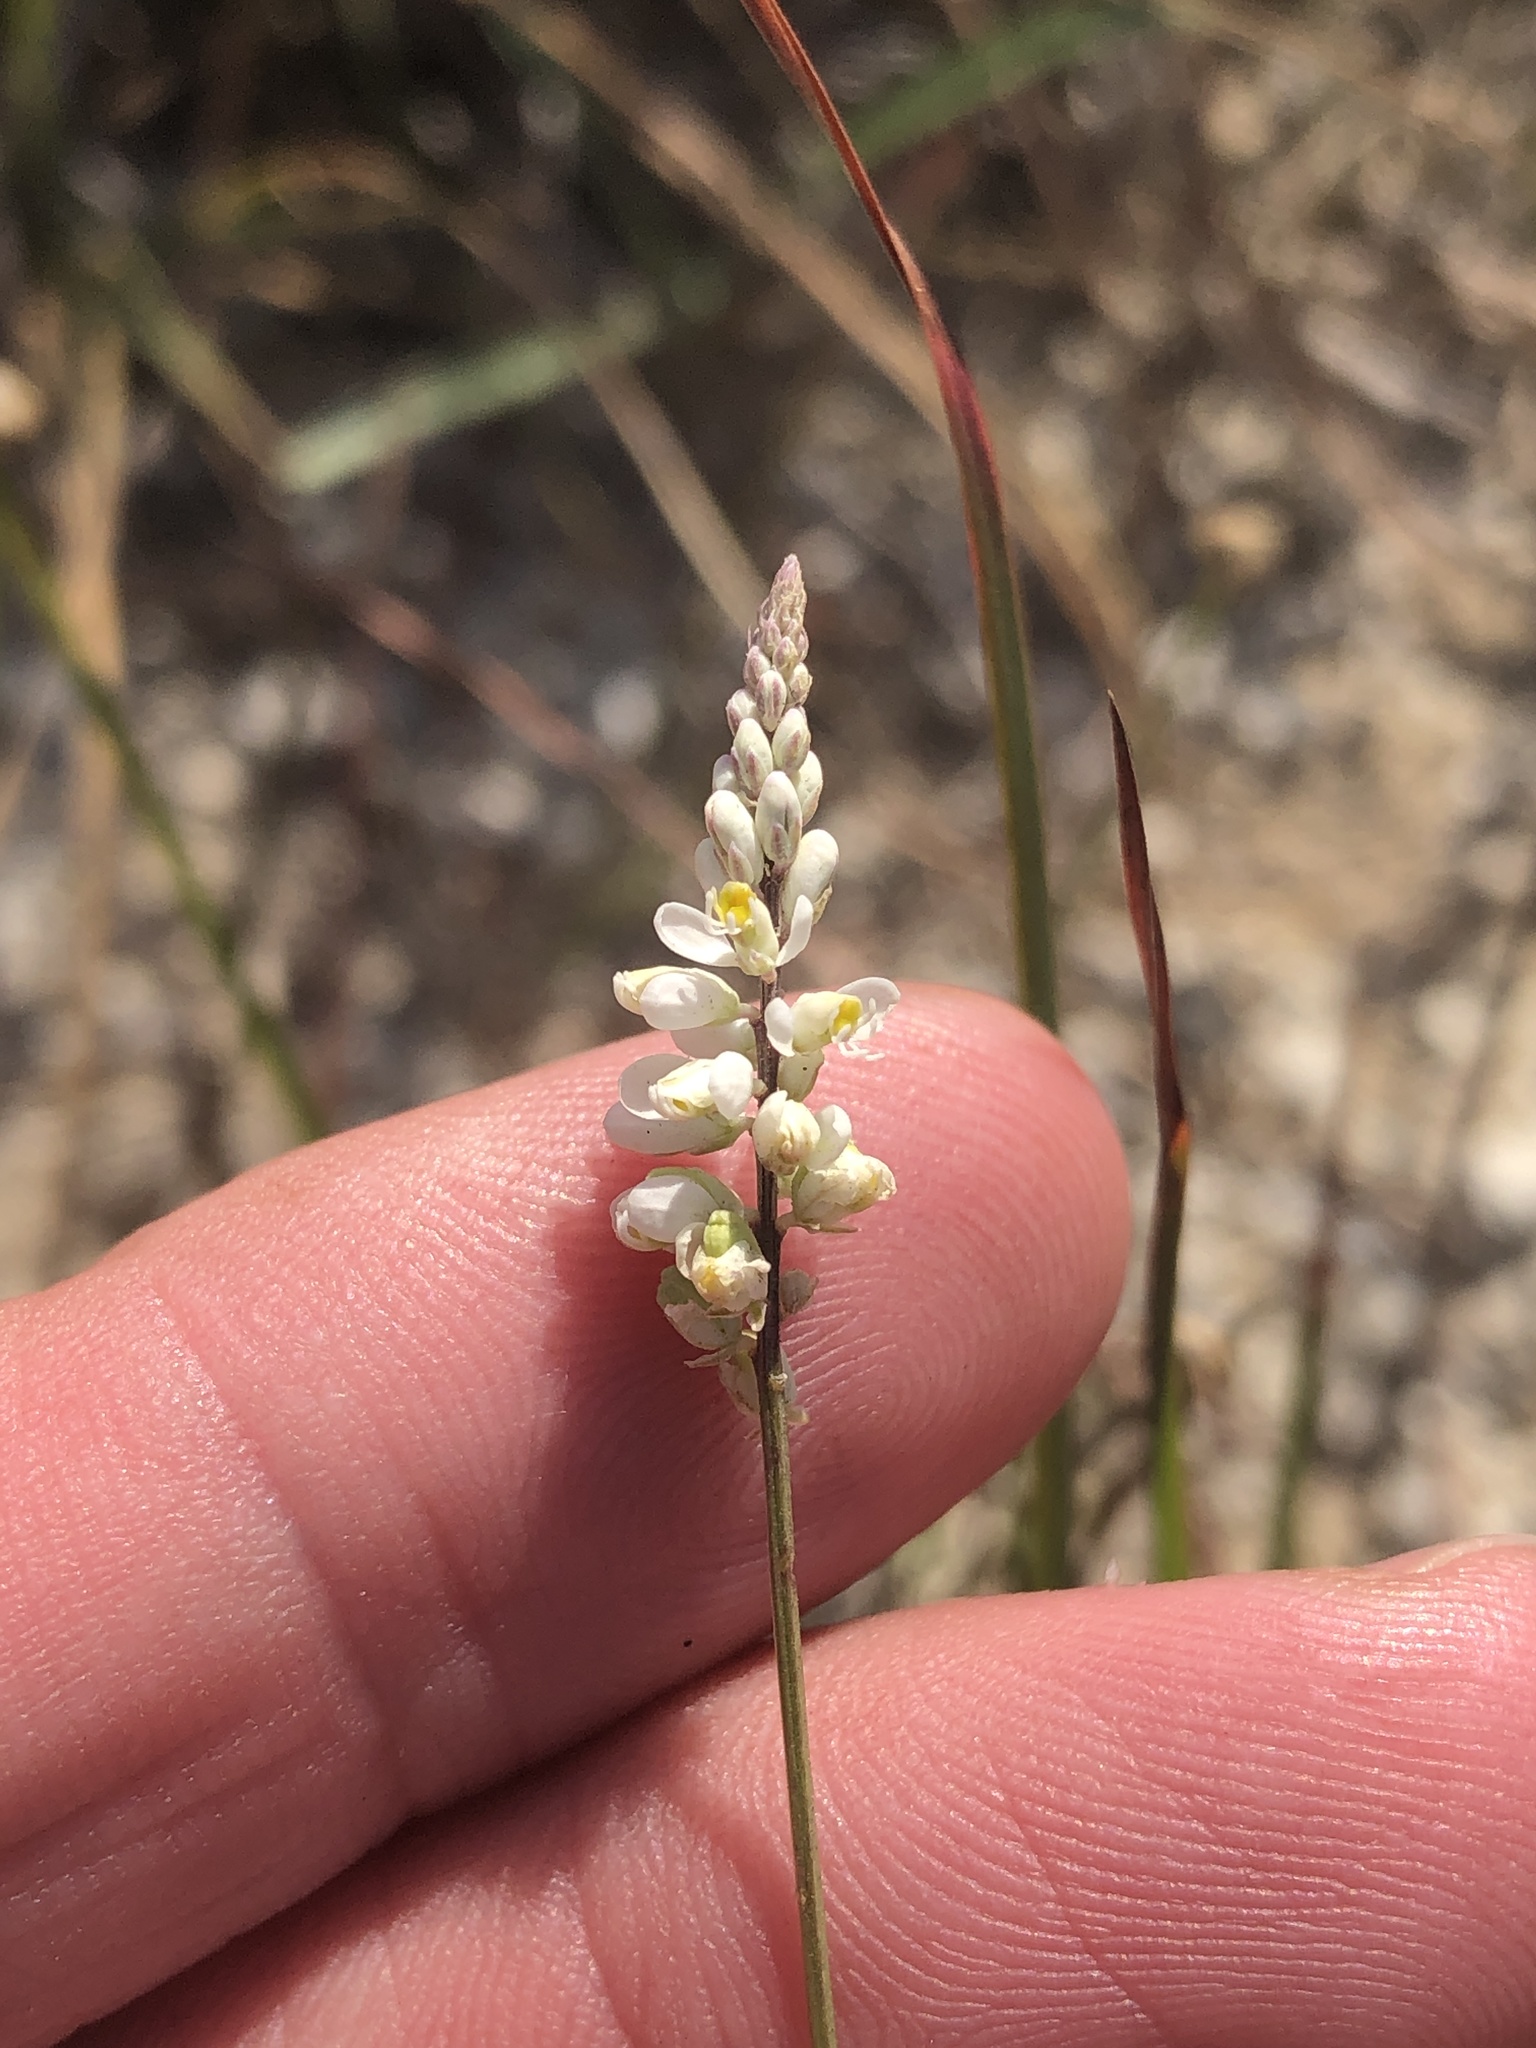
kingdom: Plantae
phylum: Tracheophyta
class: Magnoliopsida
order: Fabales
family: Polygalaceae
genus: Polygala
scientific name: Polygala alba
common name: White milkwort
